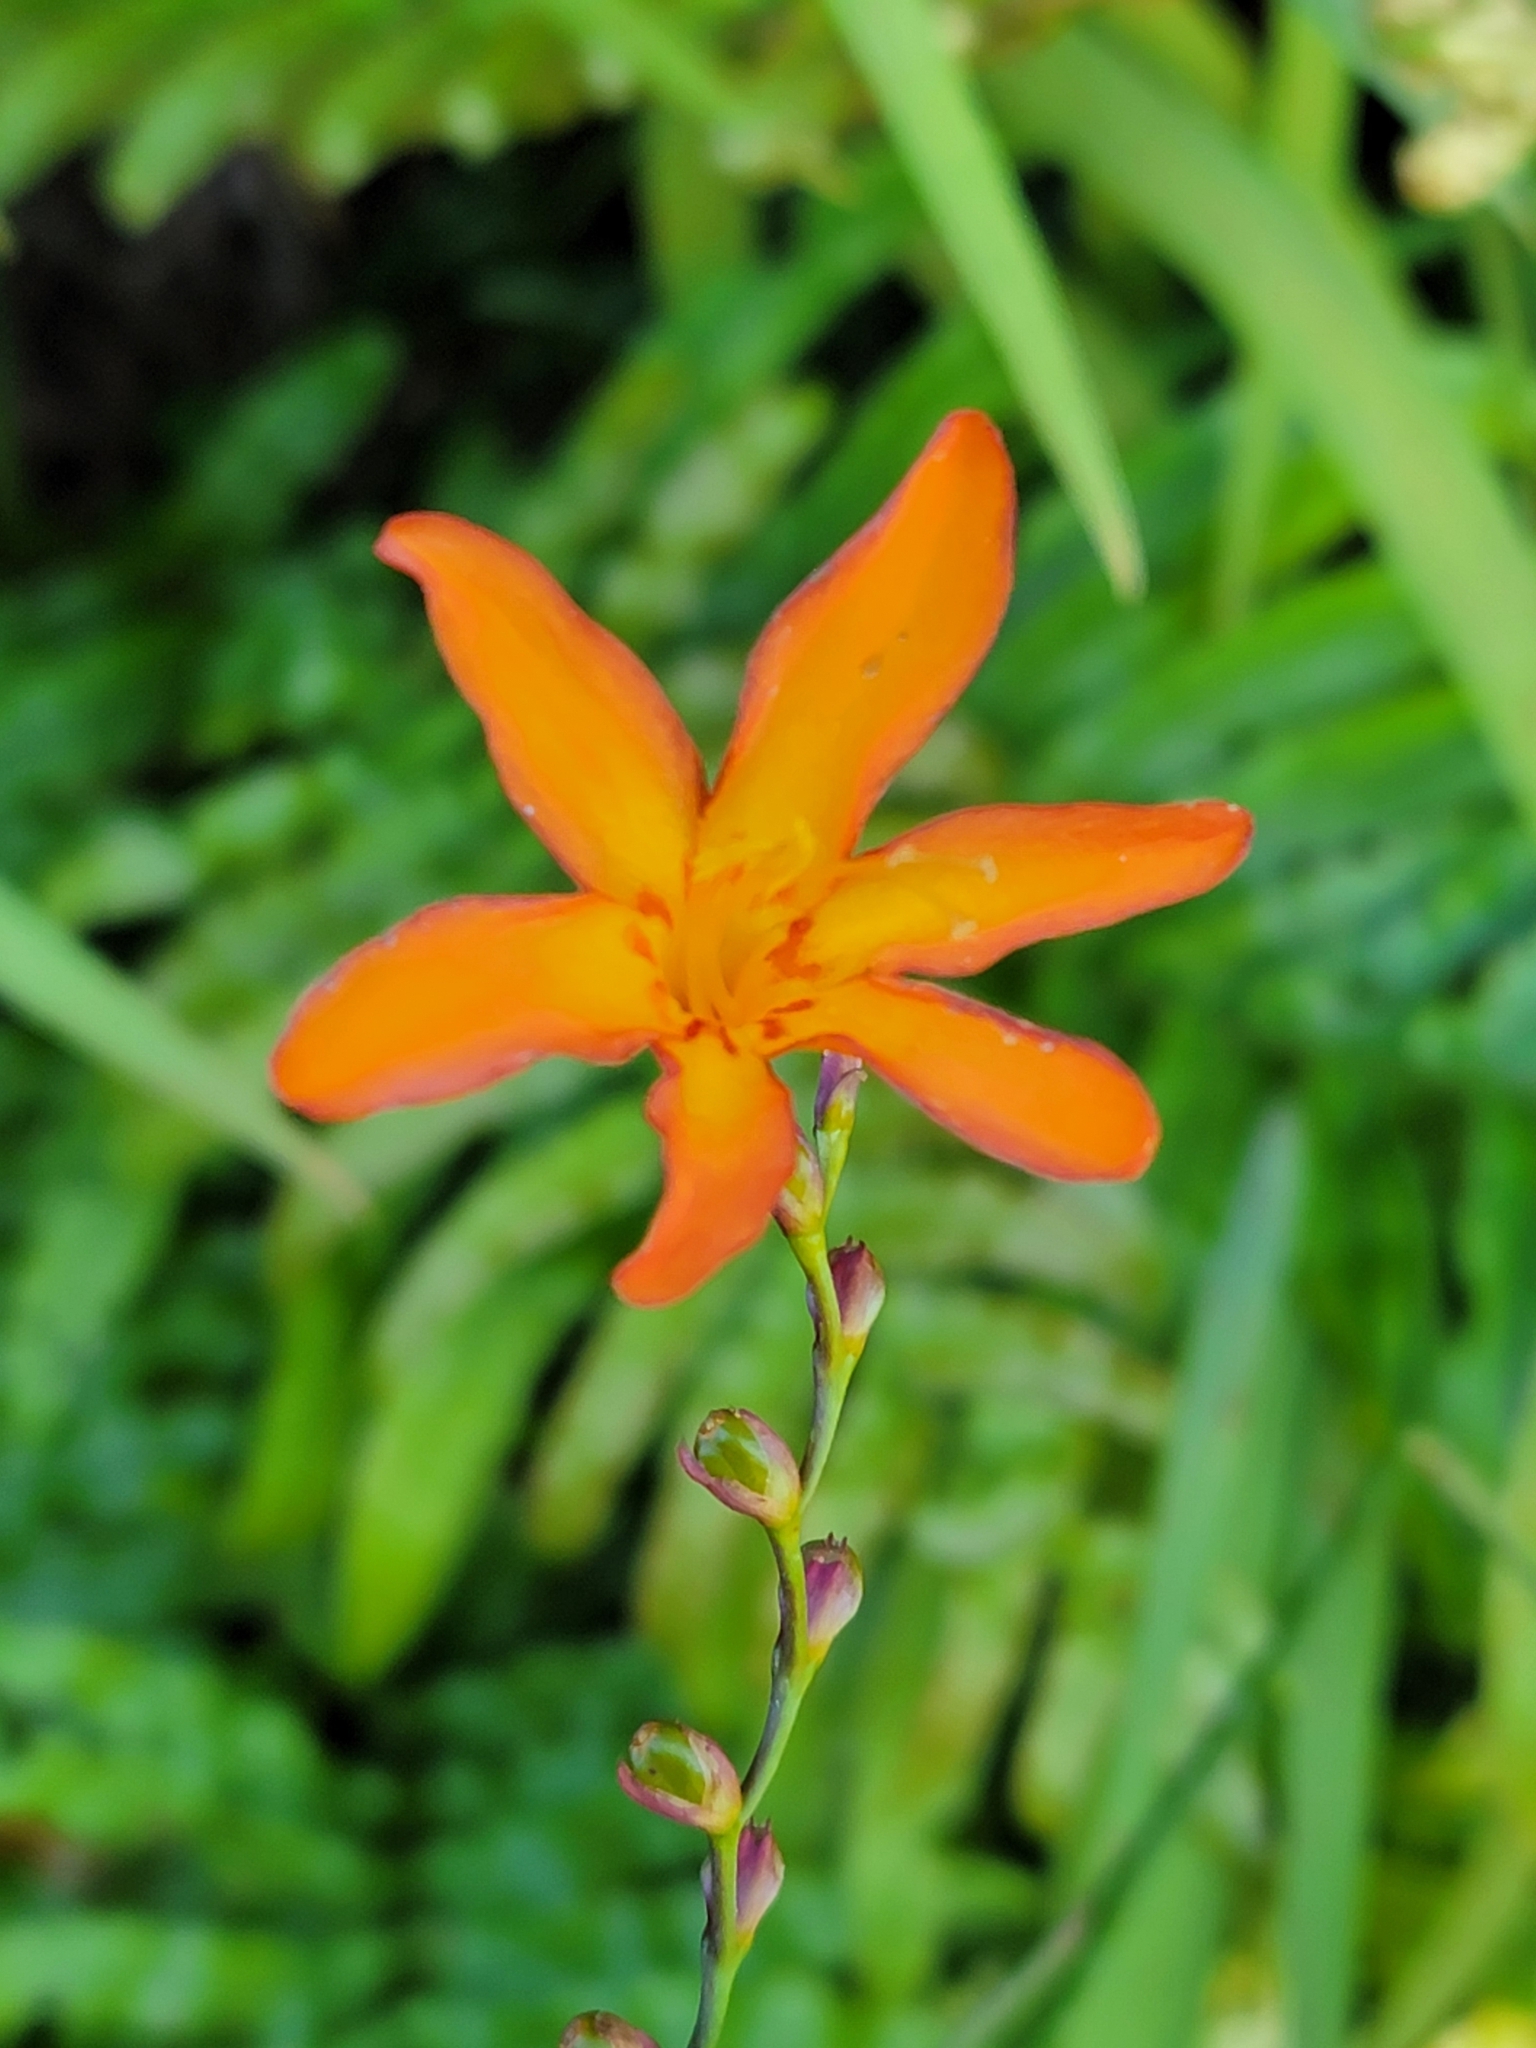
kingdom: Plantae
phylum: Tracheophyta
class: Liliopsida
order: Asparagales
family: Iridaceae
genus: Crocosmia
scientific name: Crocosmia crocosmiiflora
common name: Montbretia
